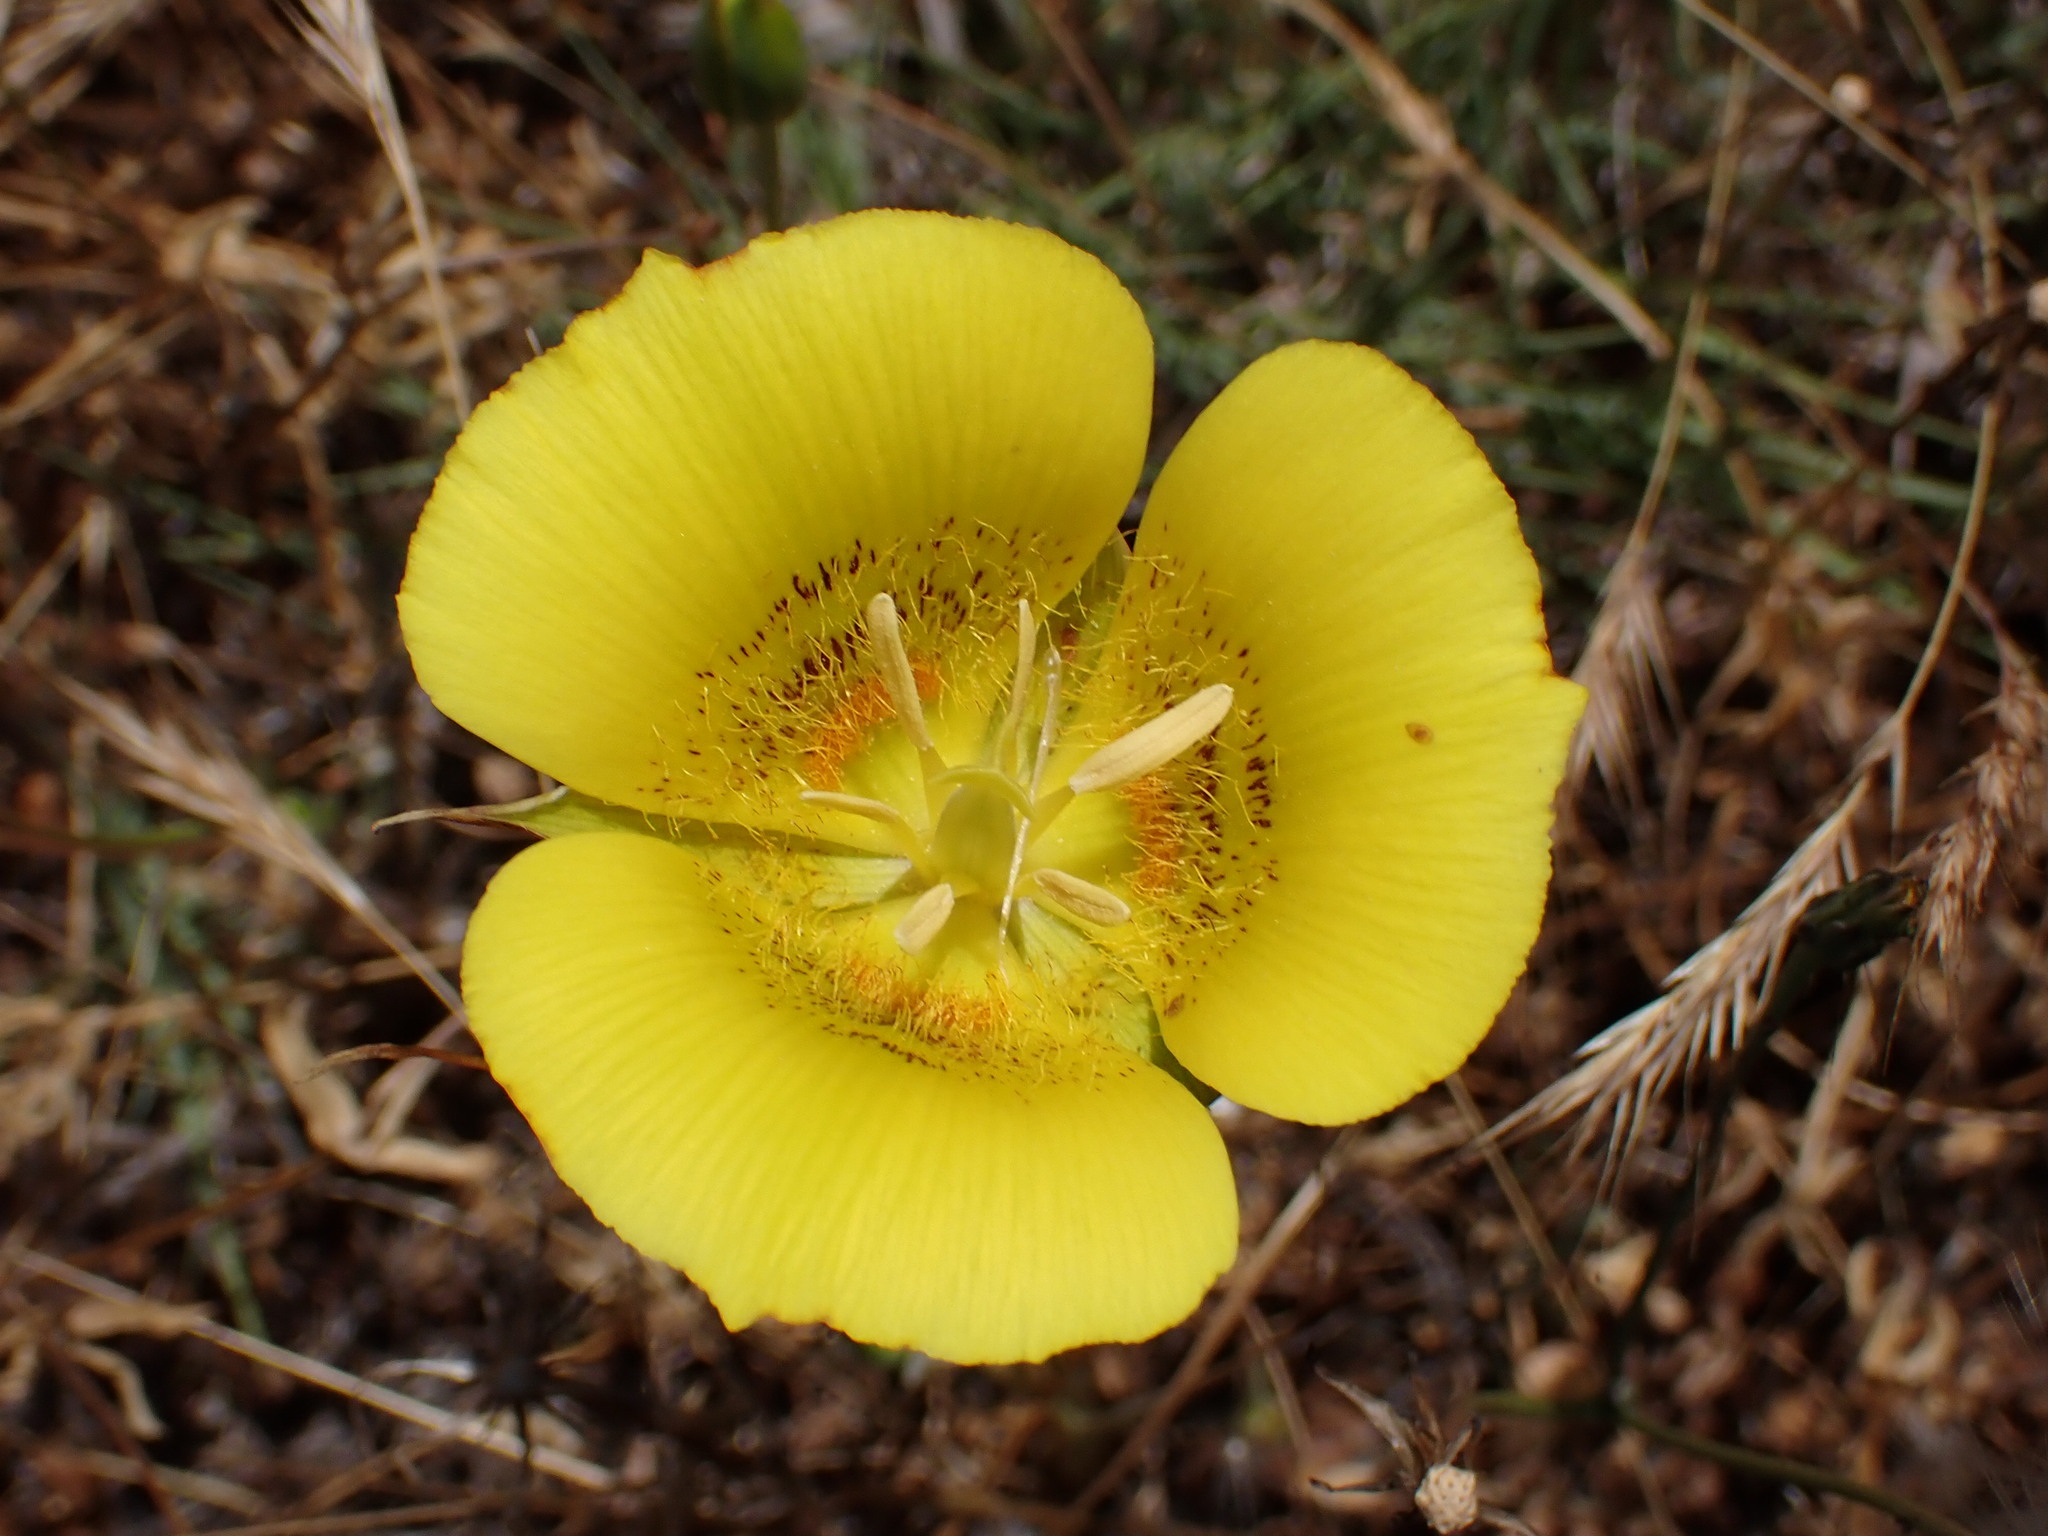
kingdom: Plantae
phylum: Tracheophyta
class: Liliopsida
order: Liliales
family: Liliaceae
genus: Calochortus
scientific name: Calochortus luteus
